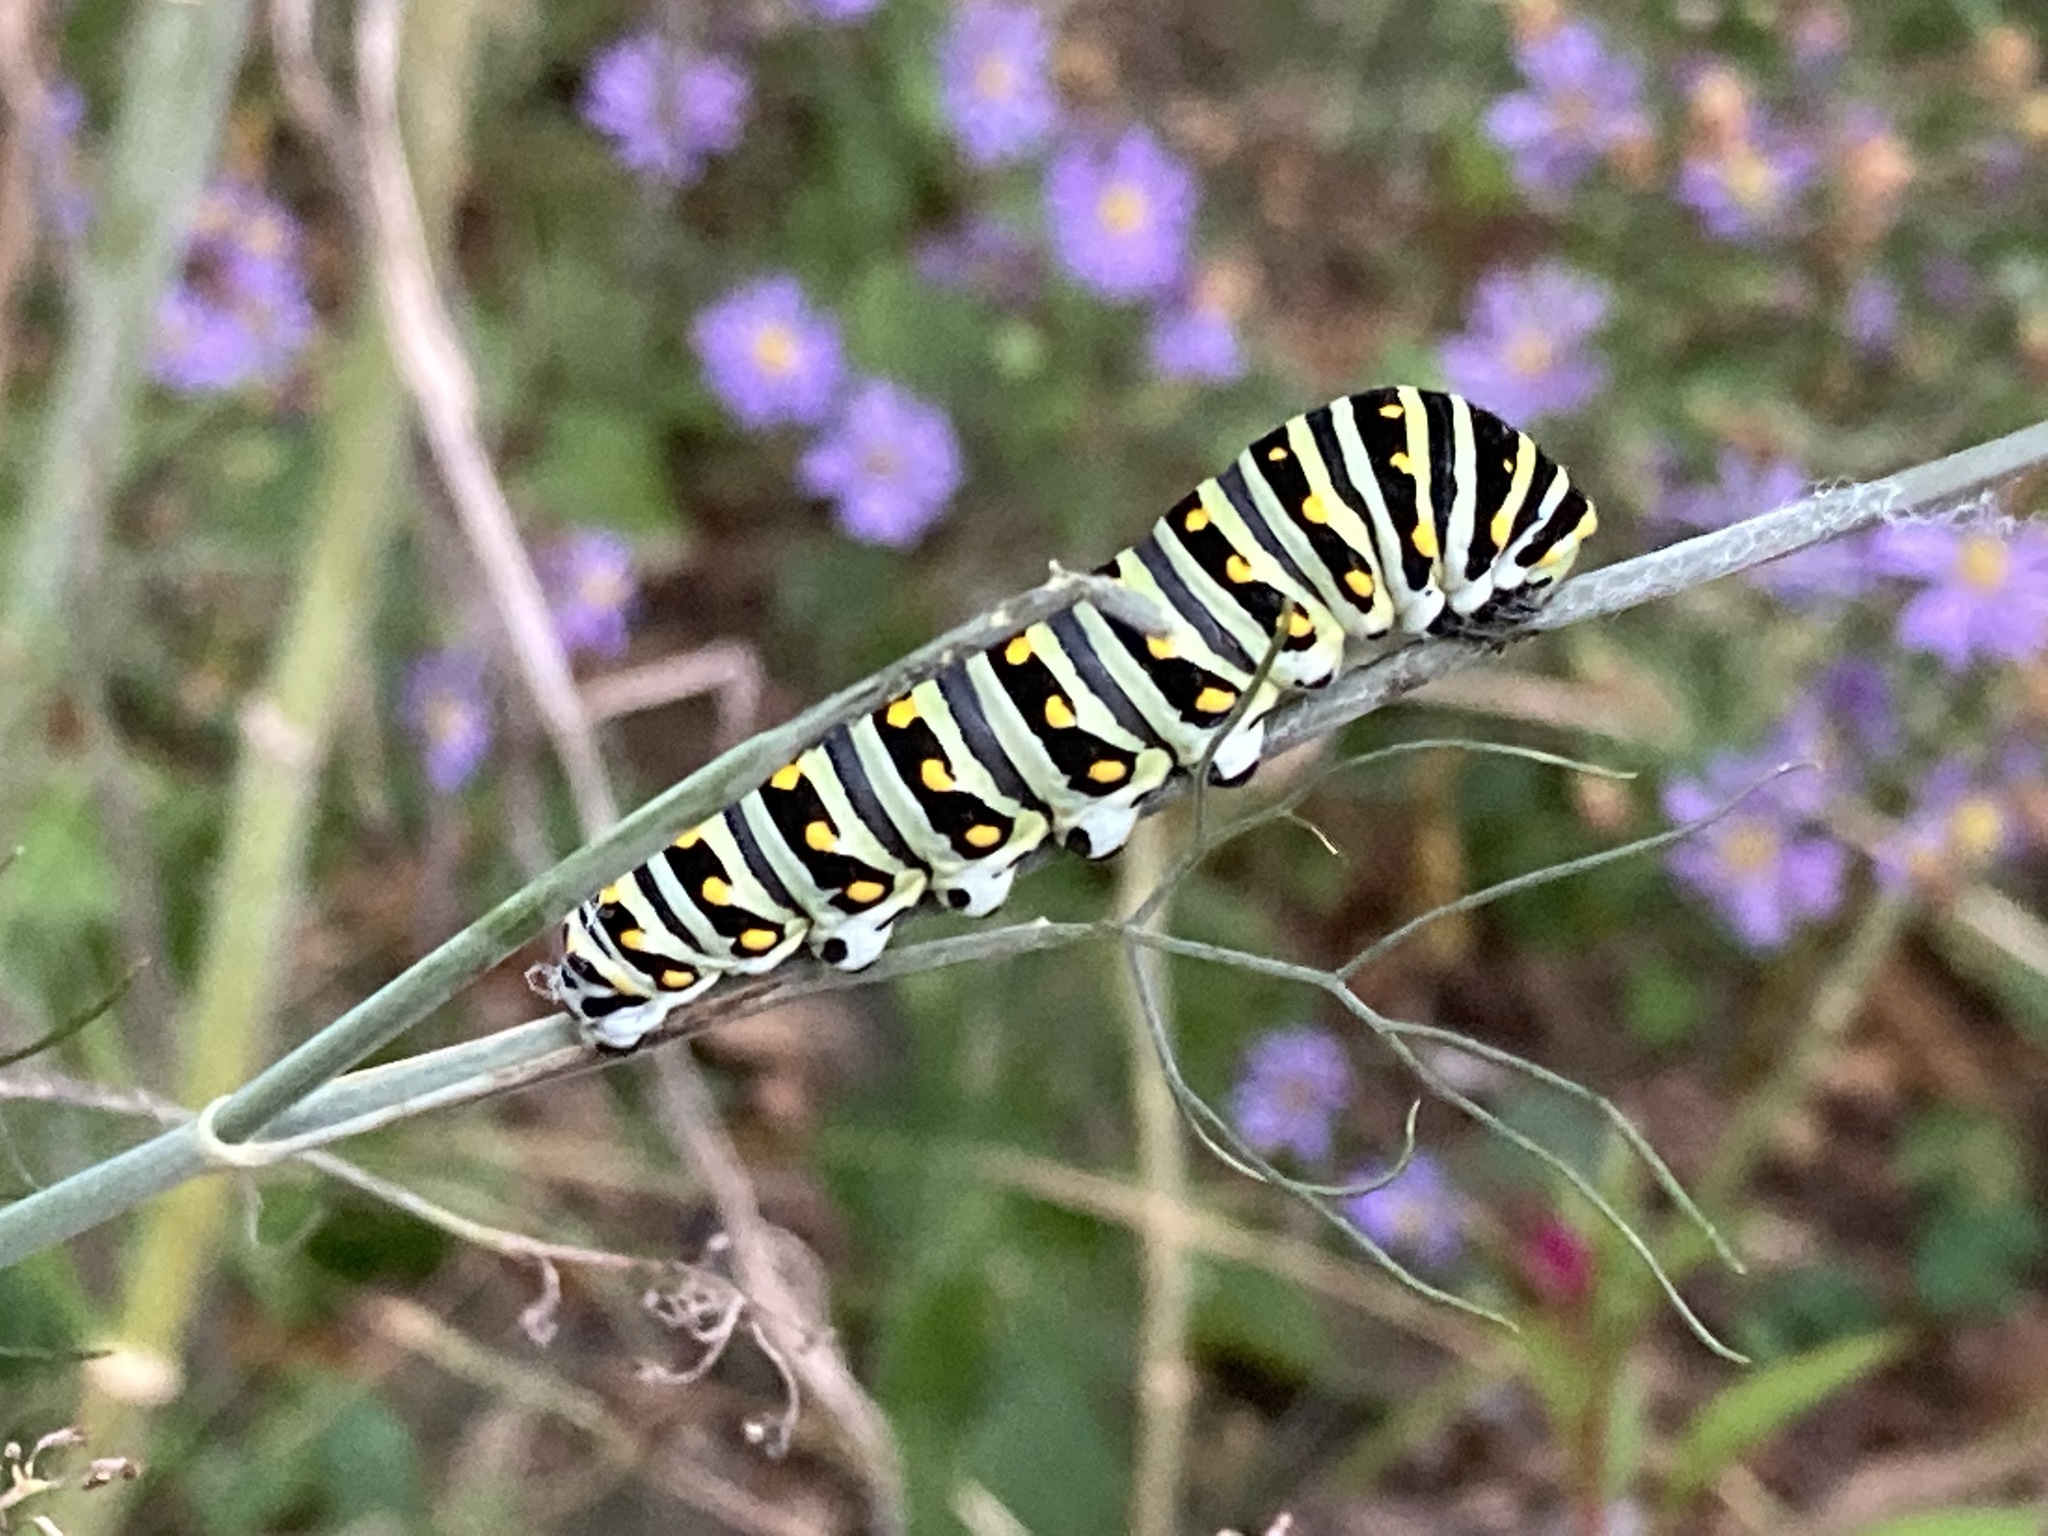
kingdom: Animalia
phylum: Arthropoda
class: Insecta
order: Lepidoptera
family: Papilionidae
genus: Papilio
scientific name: Papilio polyxenes
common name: Black swallowtail
